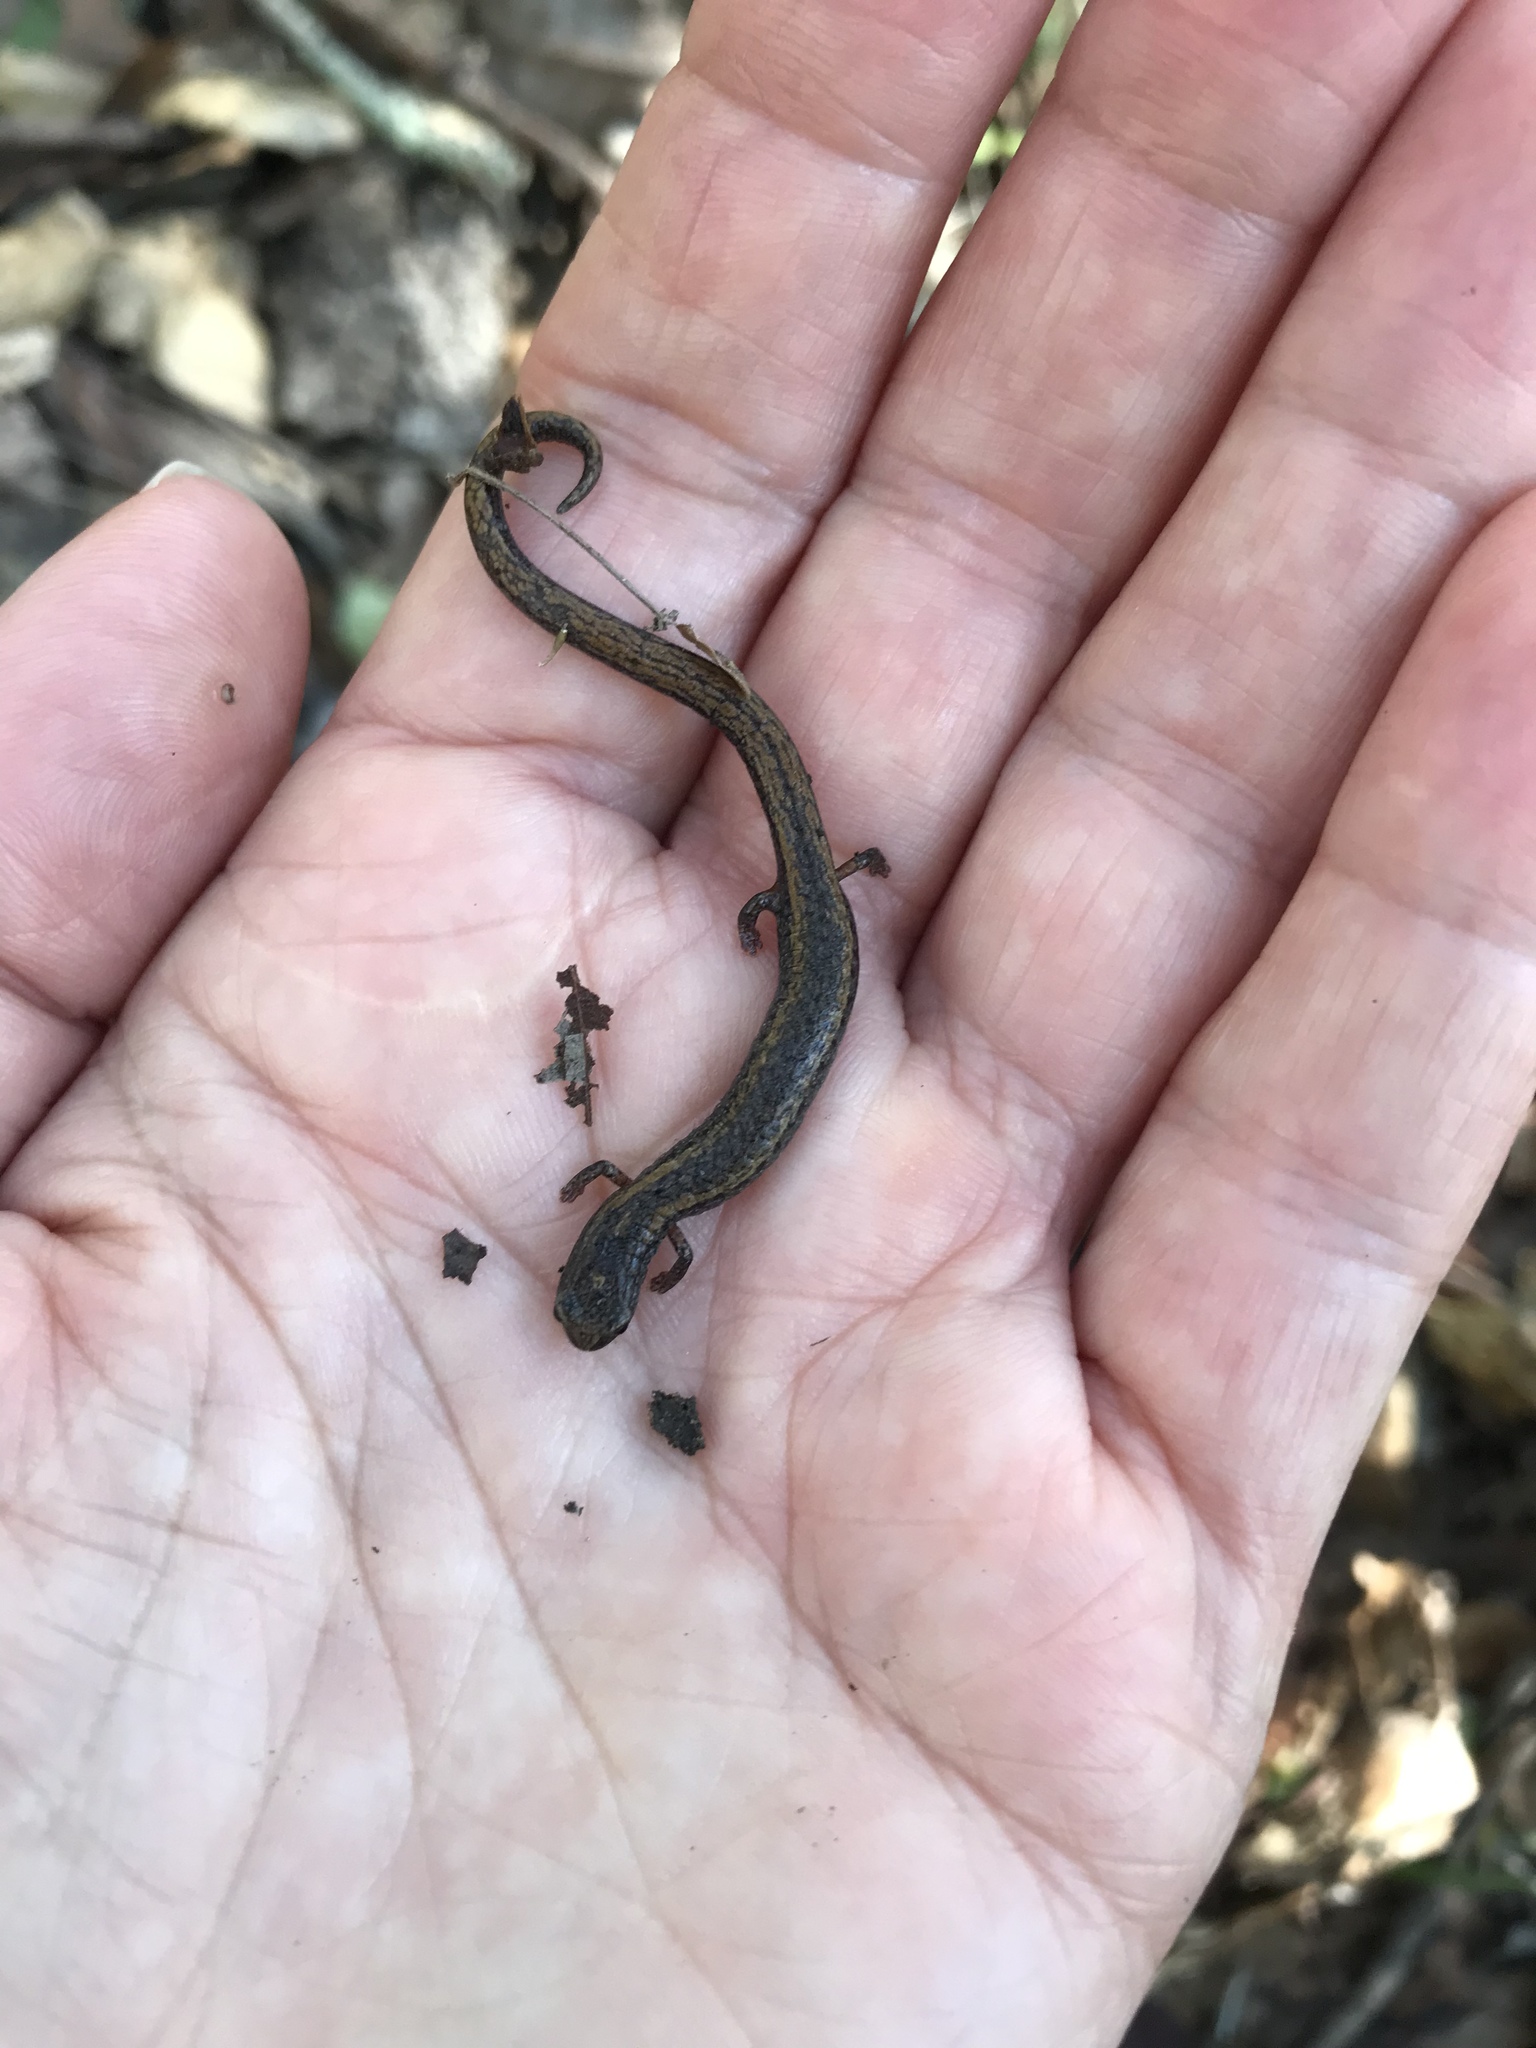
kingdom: Animalia
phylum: Chordata
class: Amphibia
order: Caudata
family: Plethodontidae
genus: Batrachoseps
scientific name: Batrachoseps attenuatus
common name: California slender salamander
